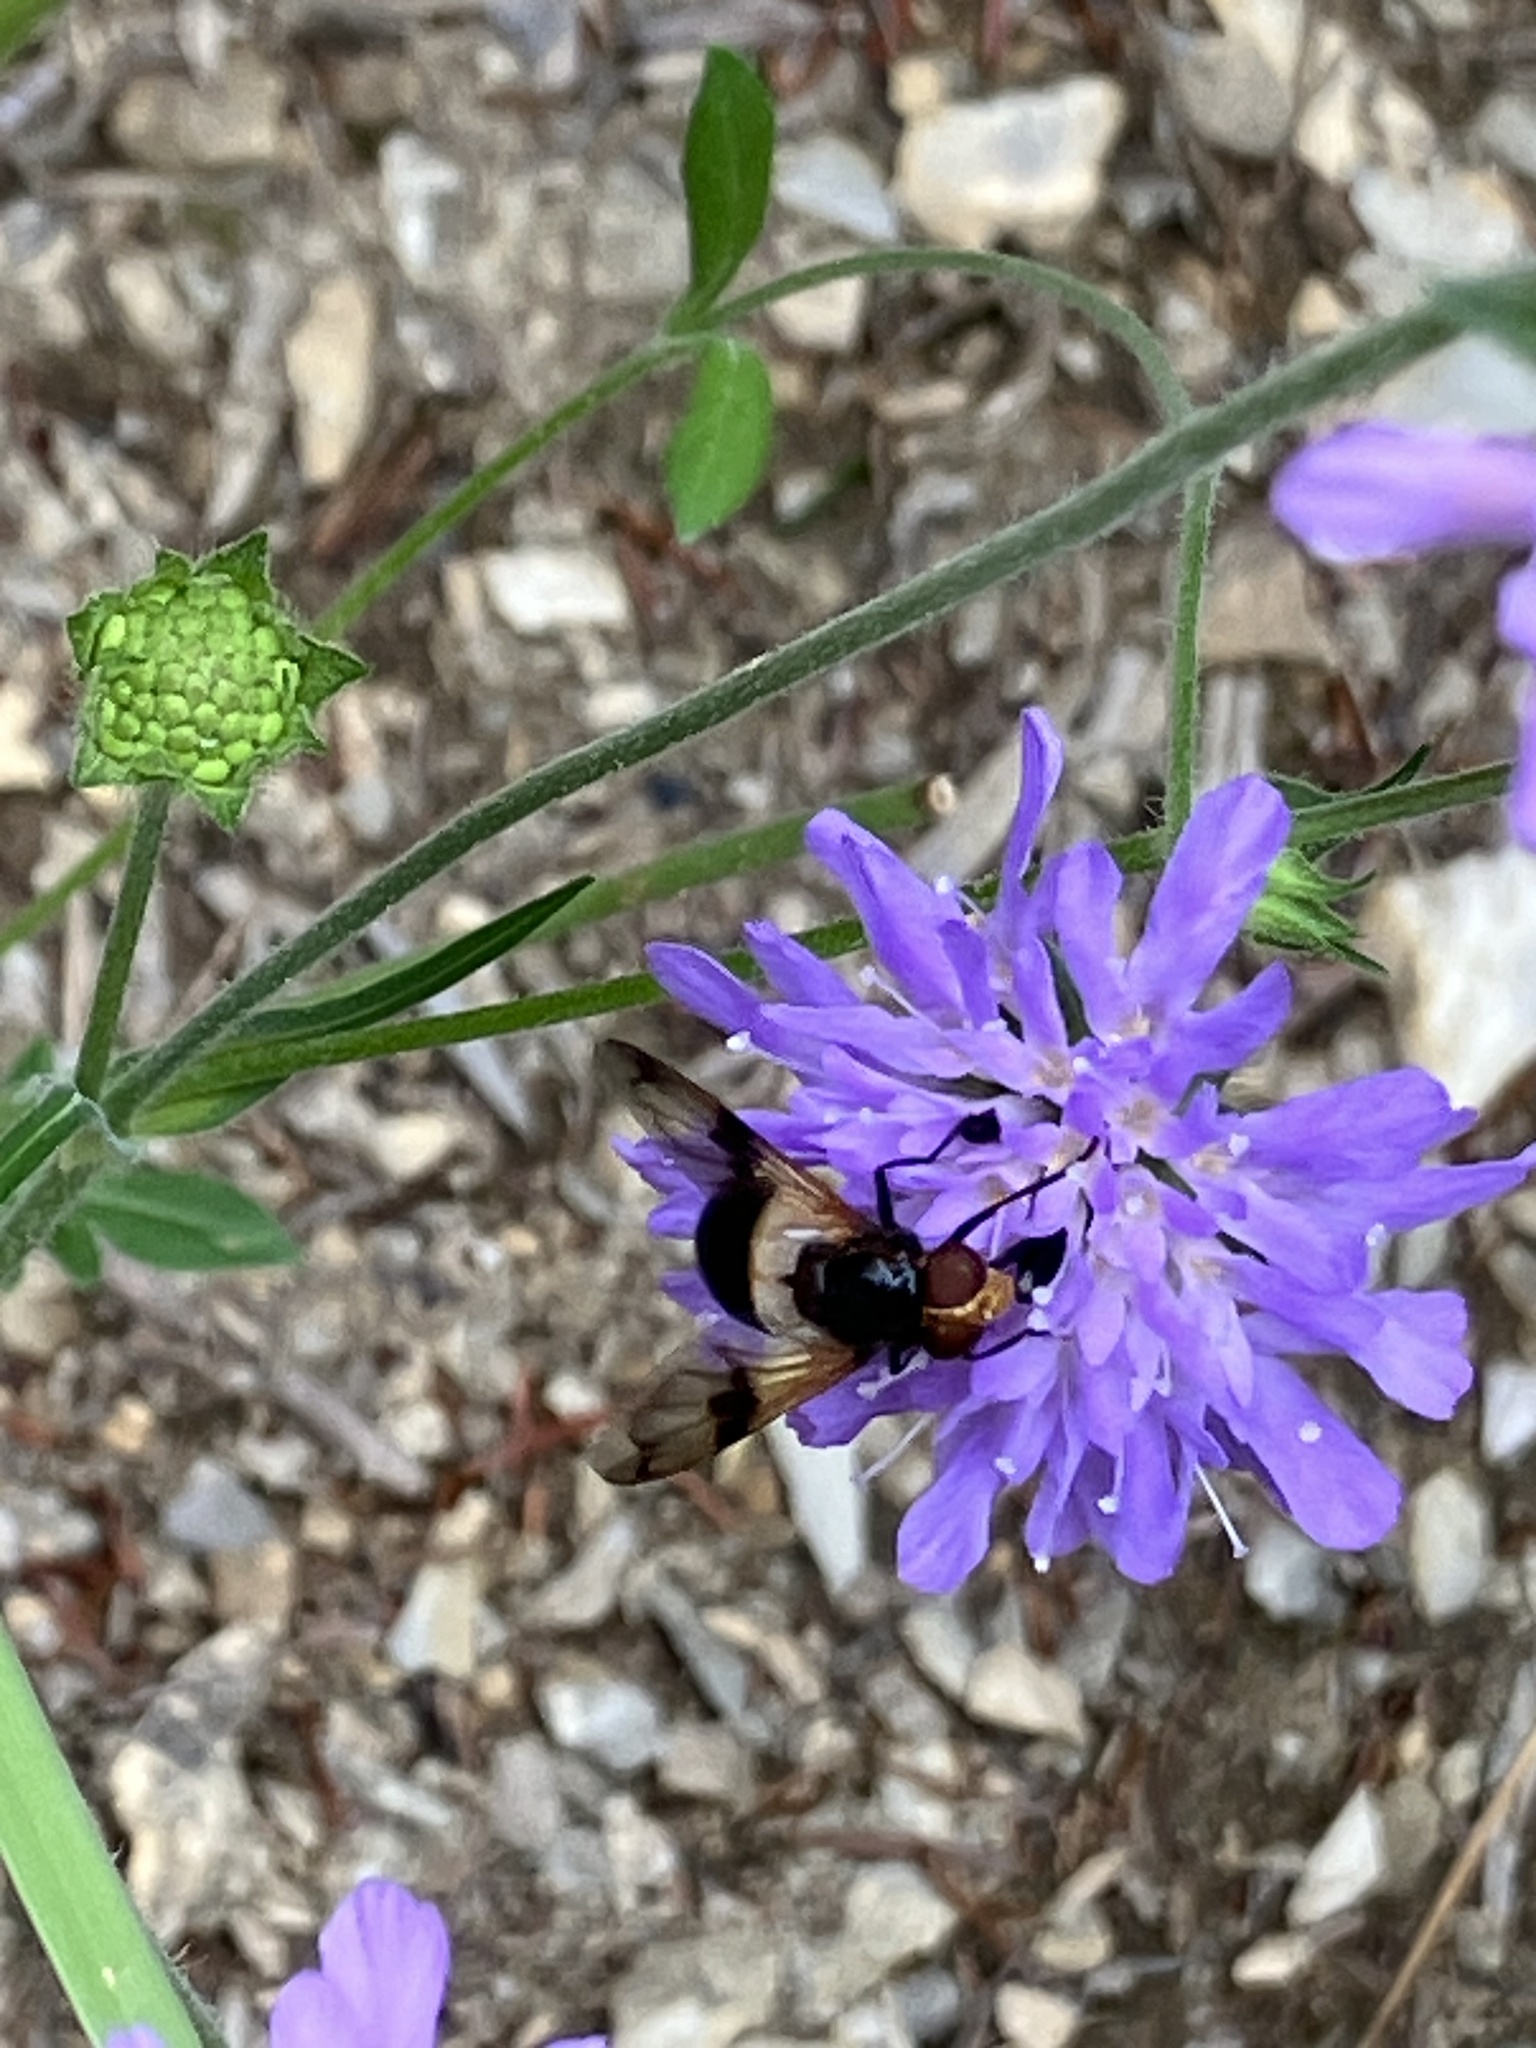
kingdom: Animalia
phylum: Arthropoda
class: Insecta
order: Diptera
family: Syrphidae
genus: Volucella
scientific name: Volucella pellucens
